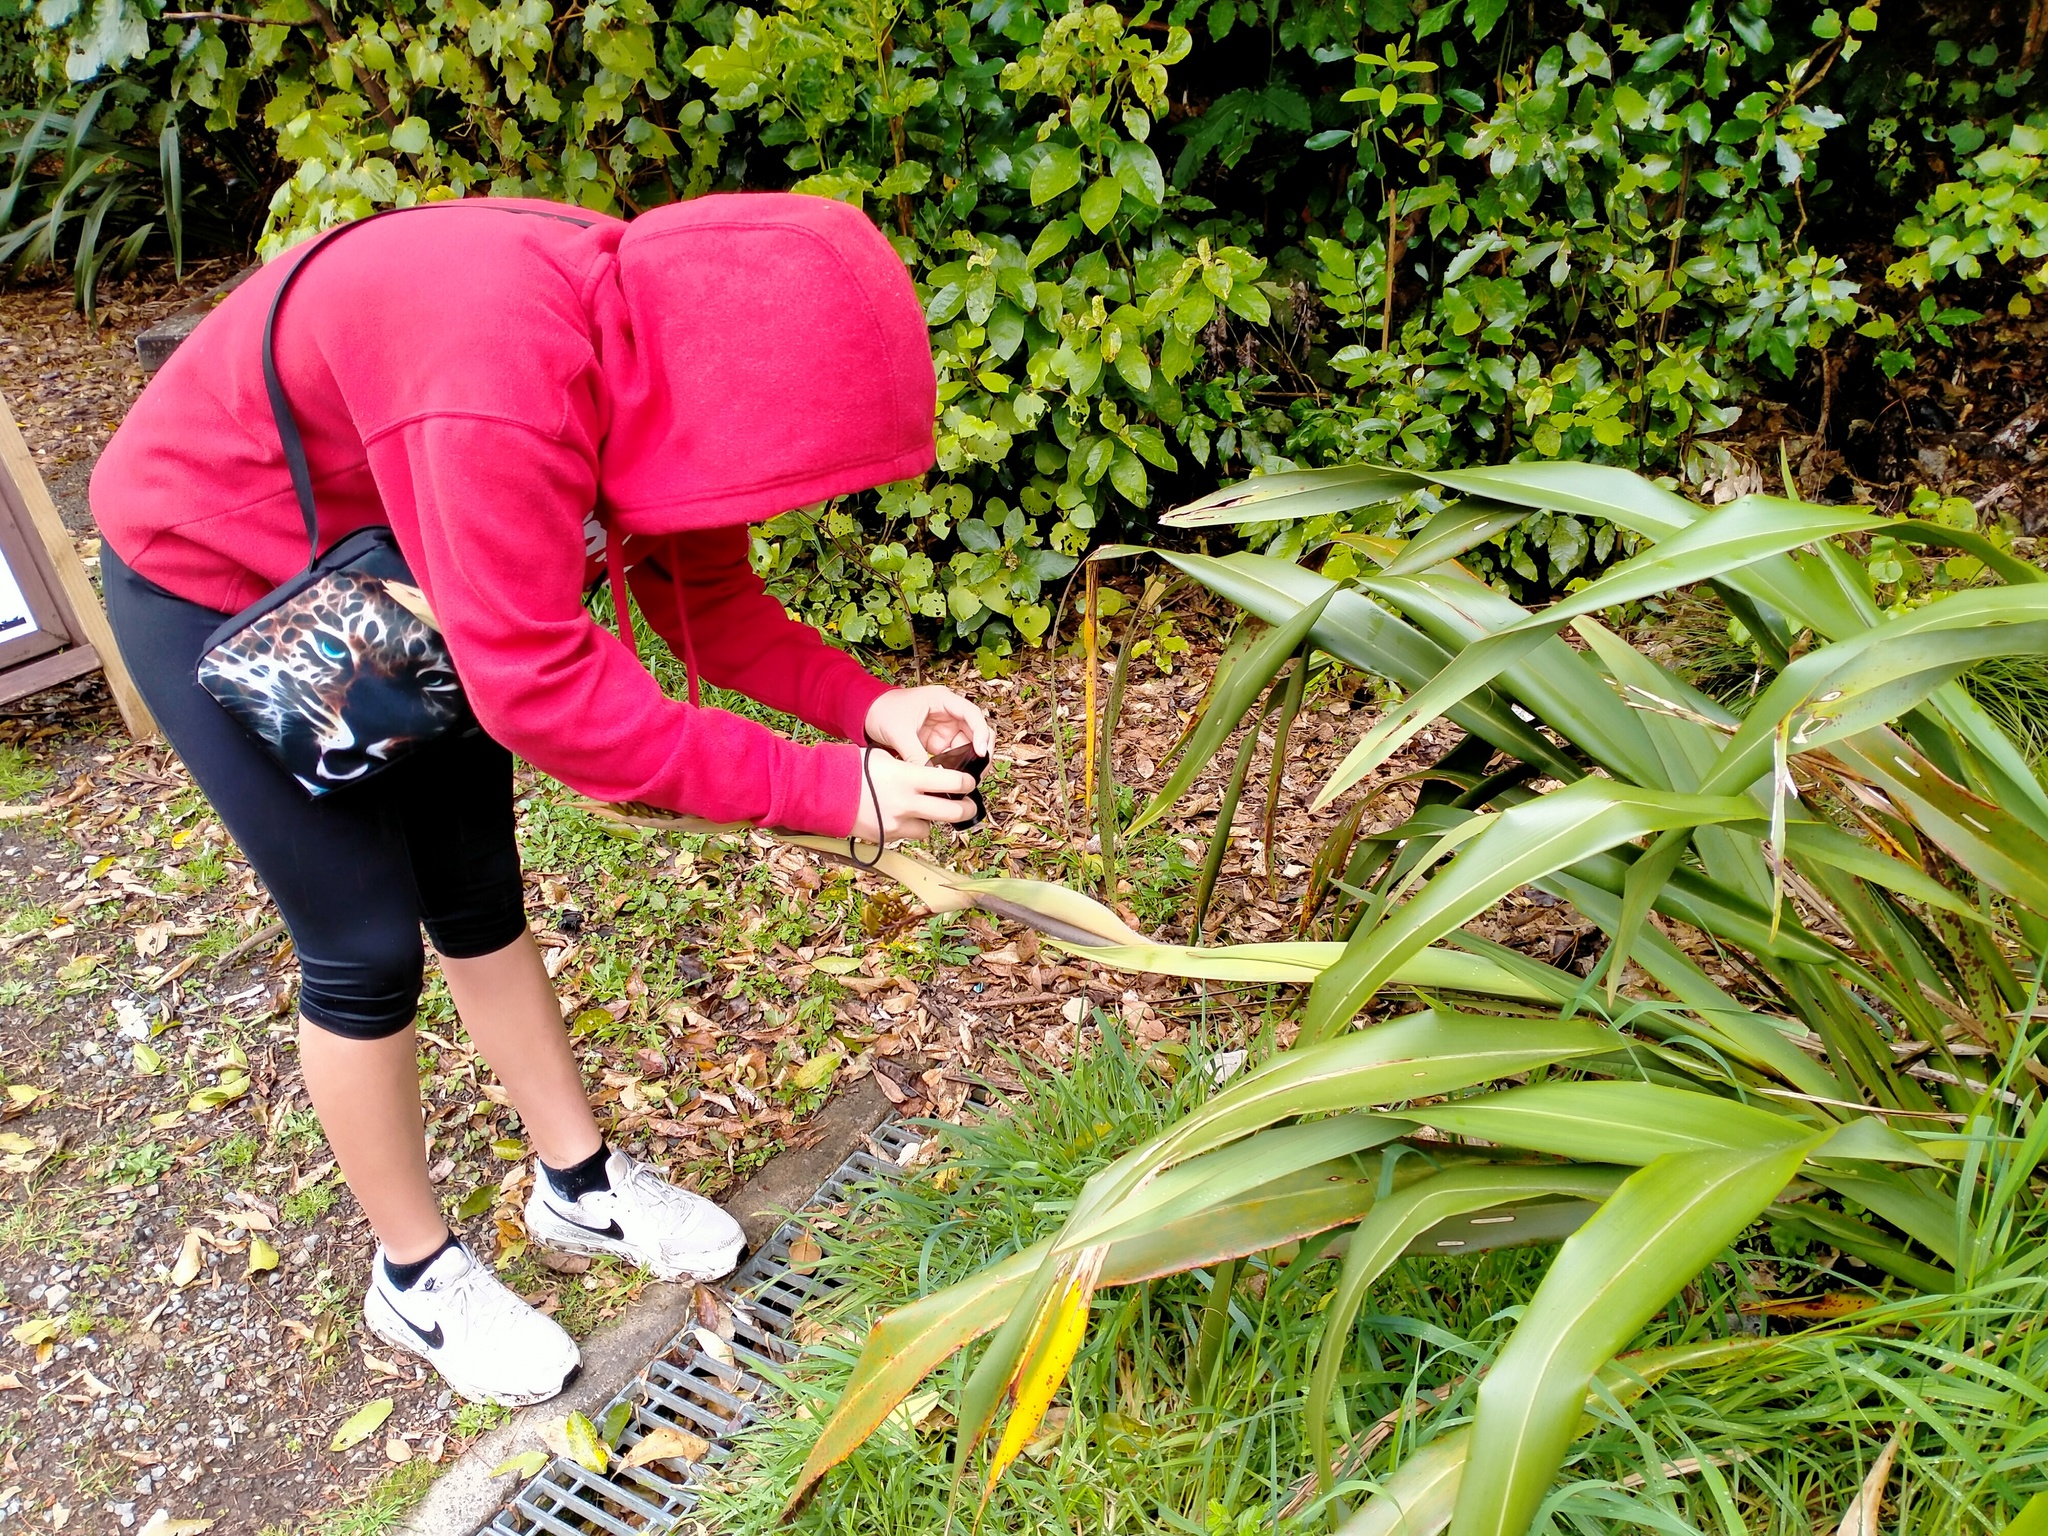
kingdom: Plantae
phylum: Tracheophyta
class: Liliopsida
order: Asparagales
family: Asphodelaceae
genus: Phormium
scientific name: Phormium tenax
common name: New zealand flax
